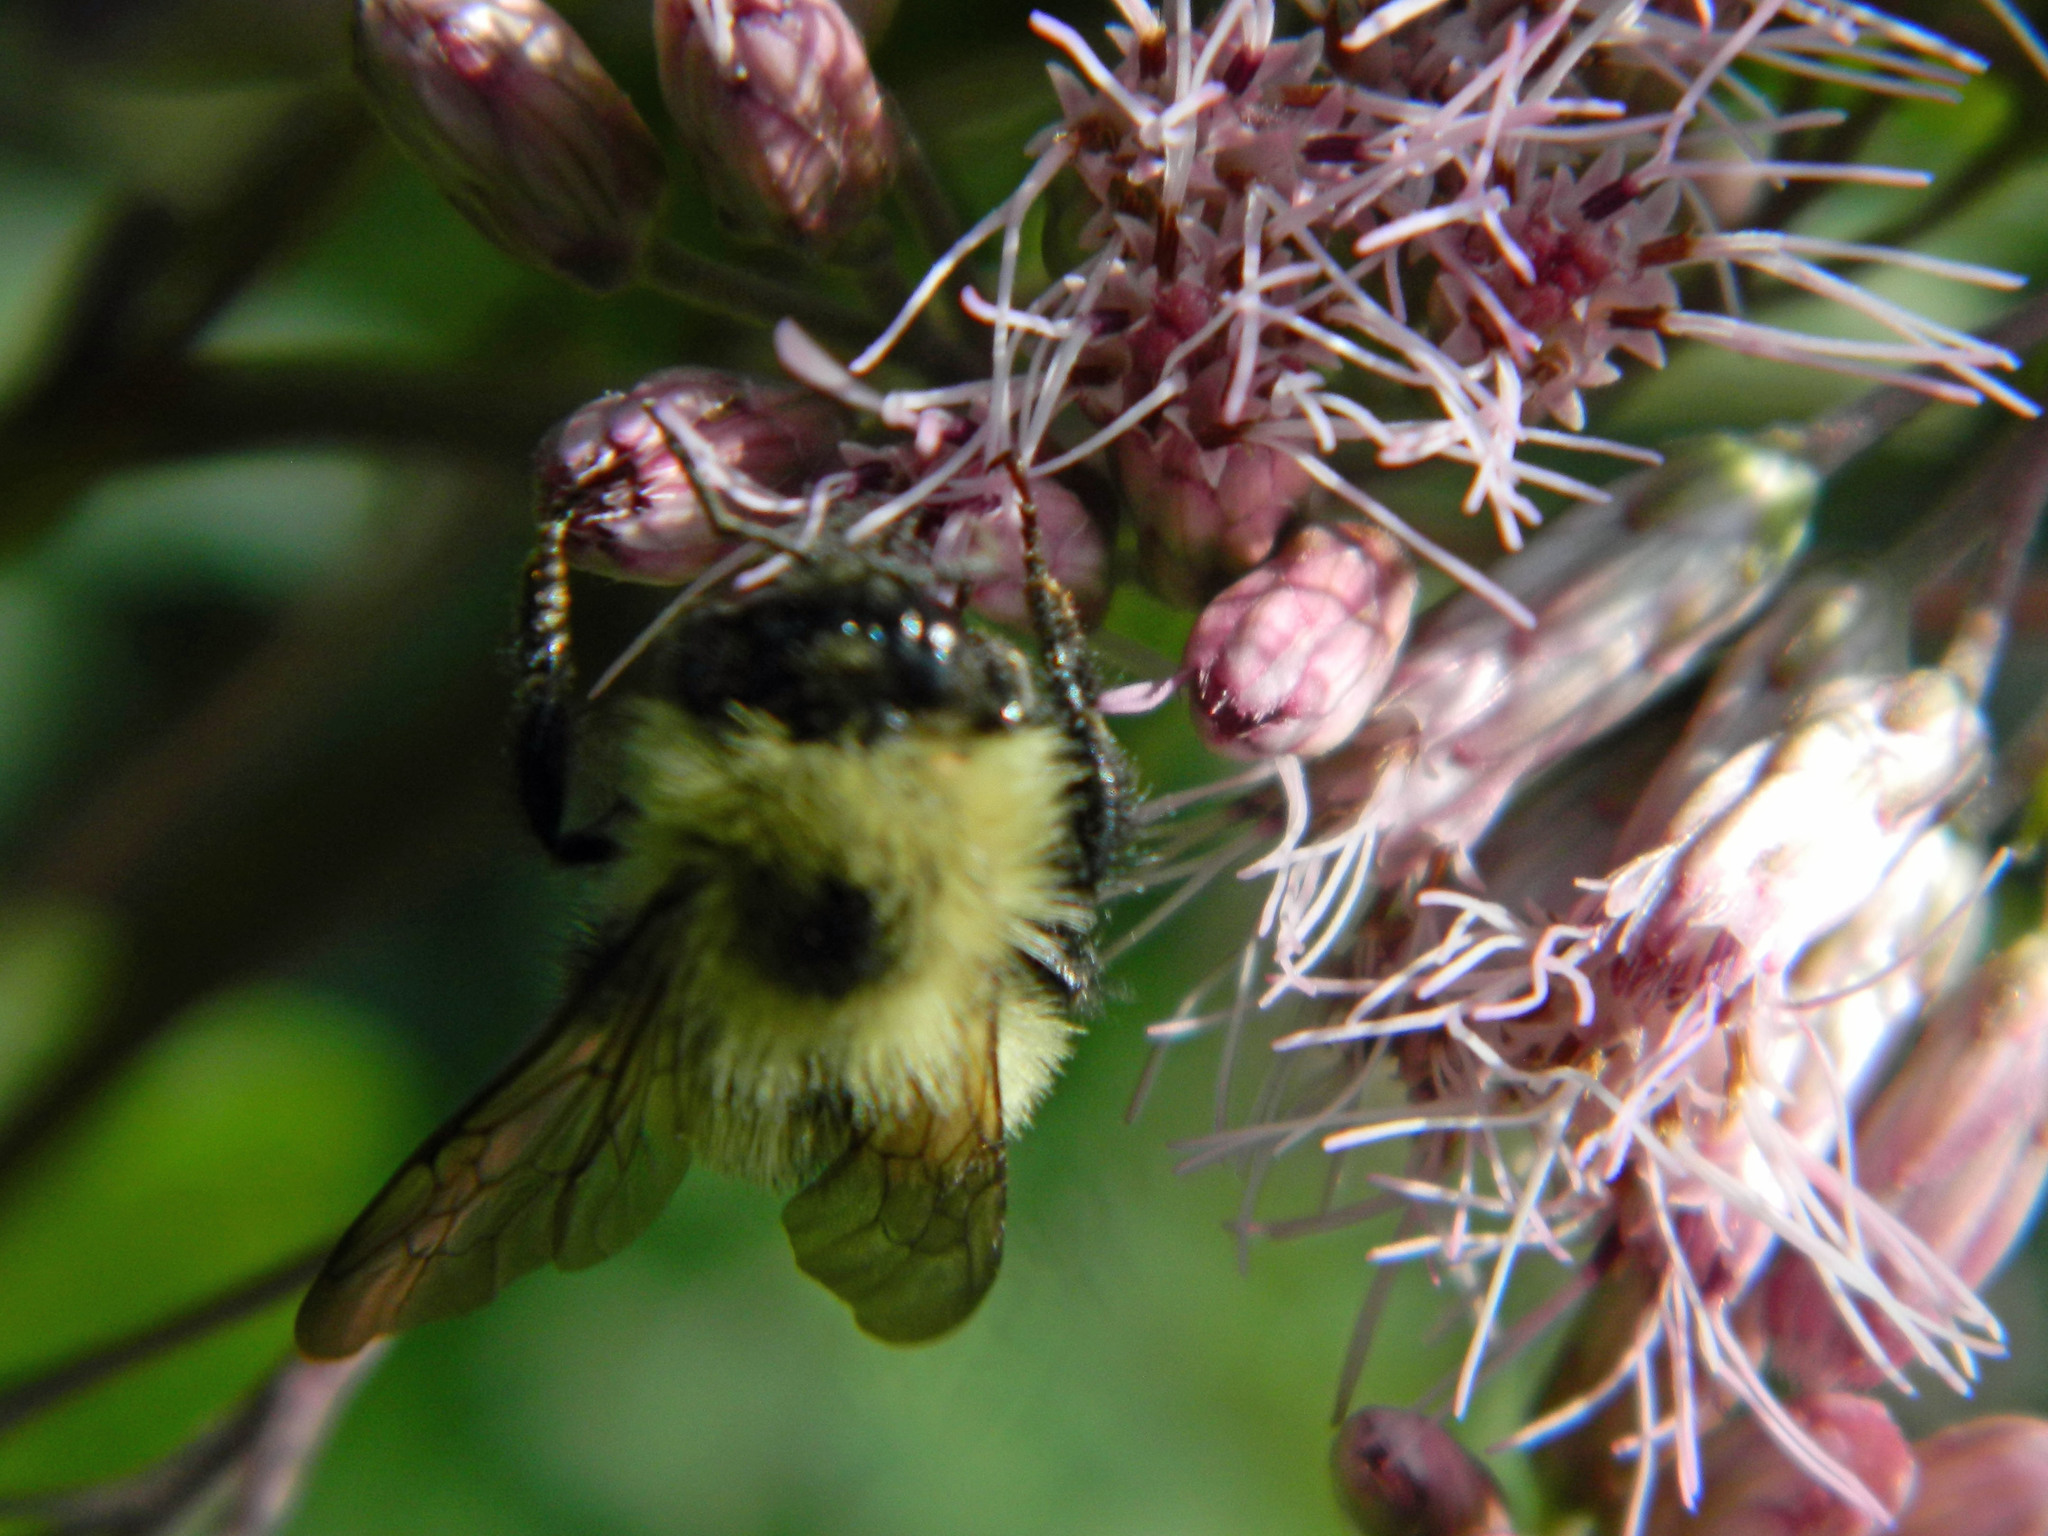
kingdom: Animalia
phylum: Arthropoda
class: Insecta
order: Hymenoptera
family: Apidae
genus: Pyrobombus
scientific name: Pyrobombus
